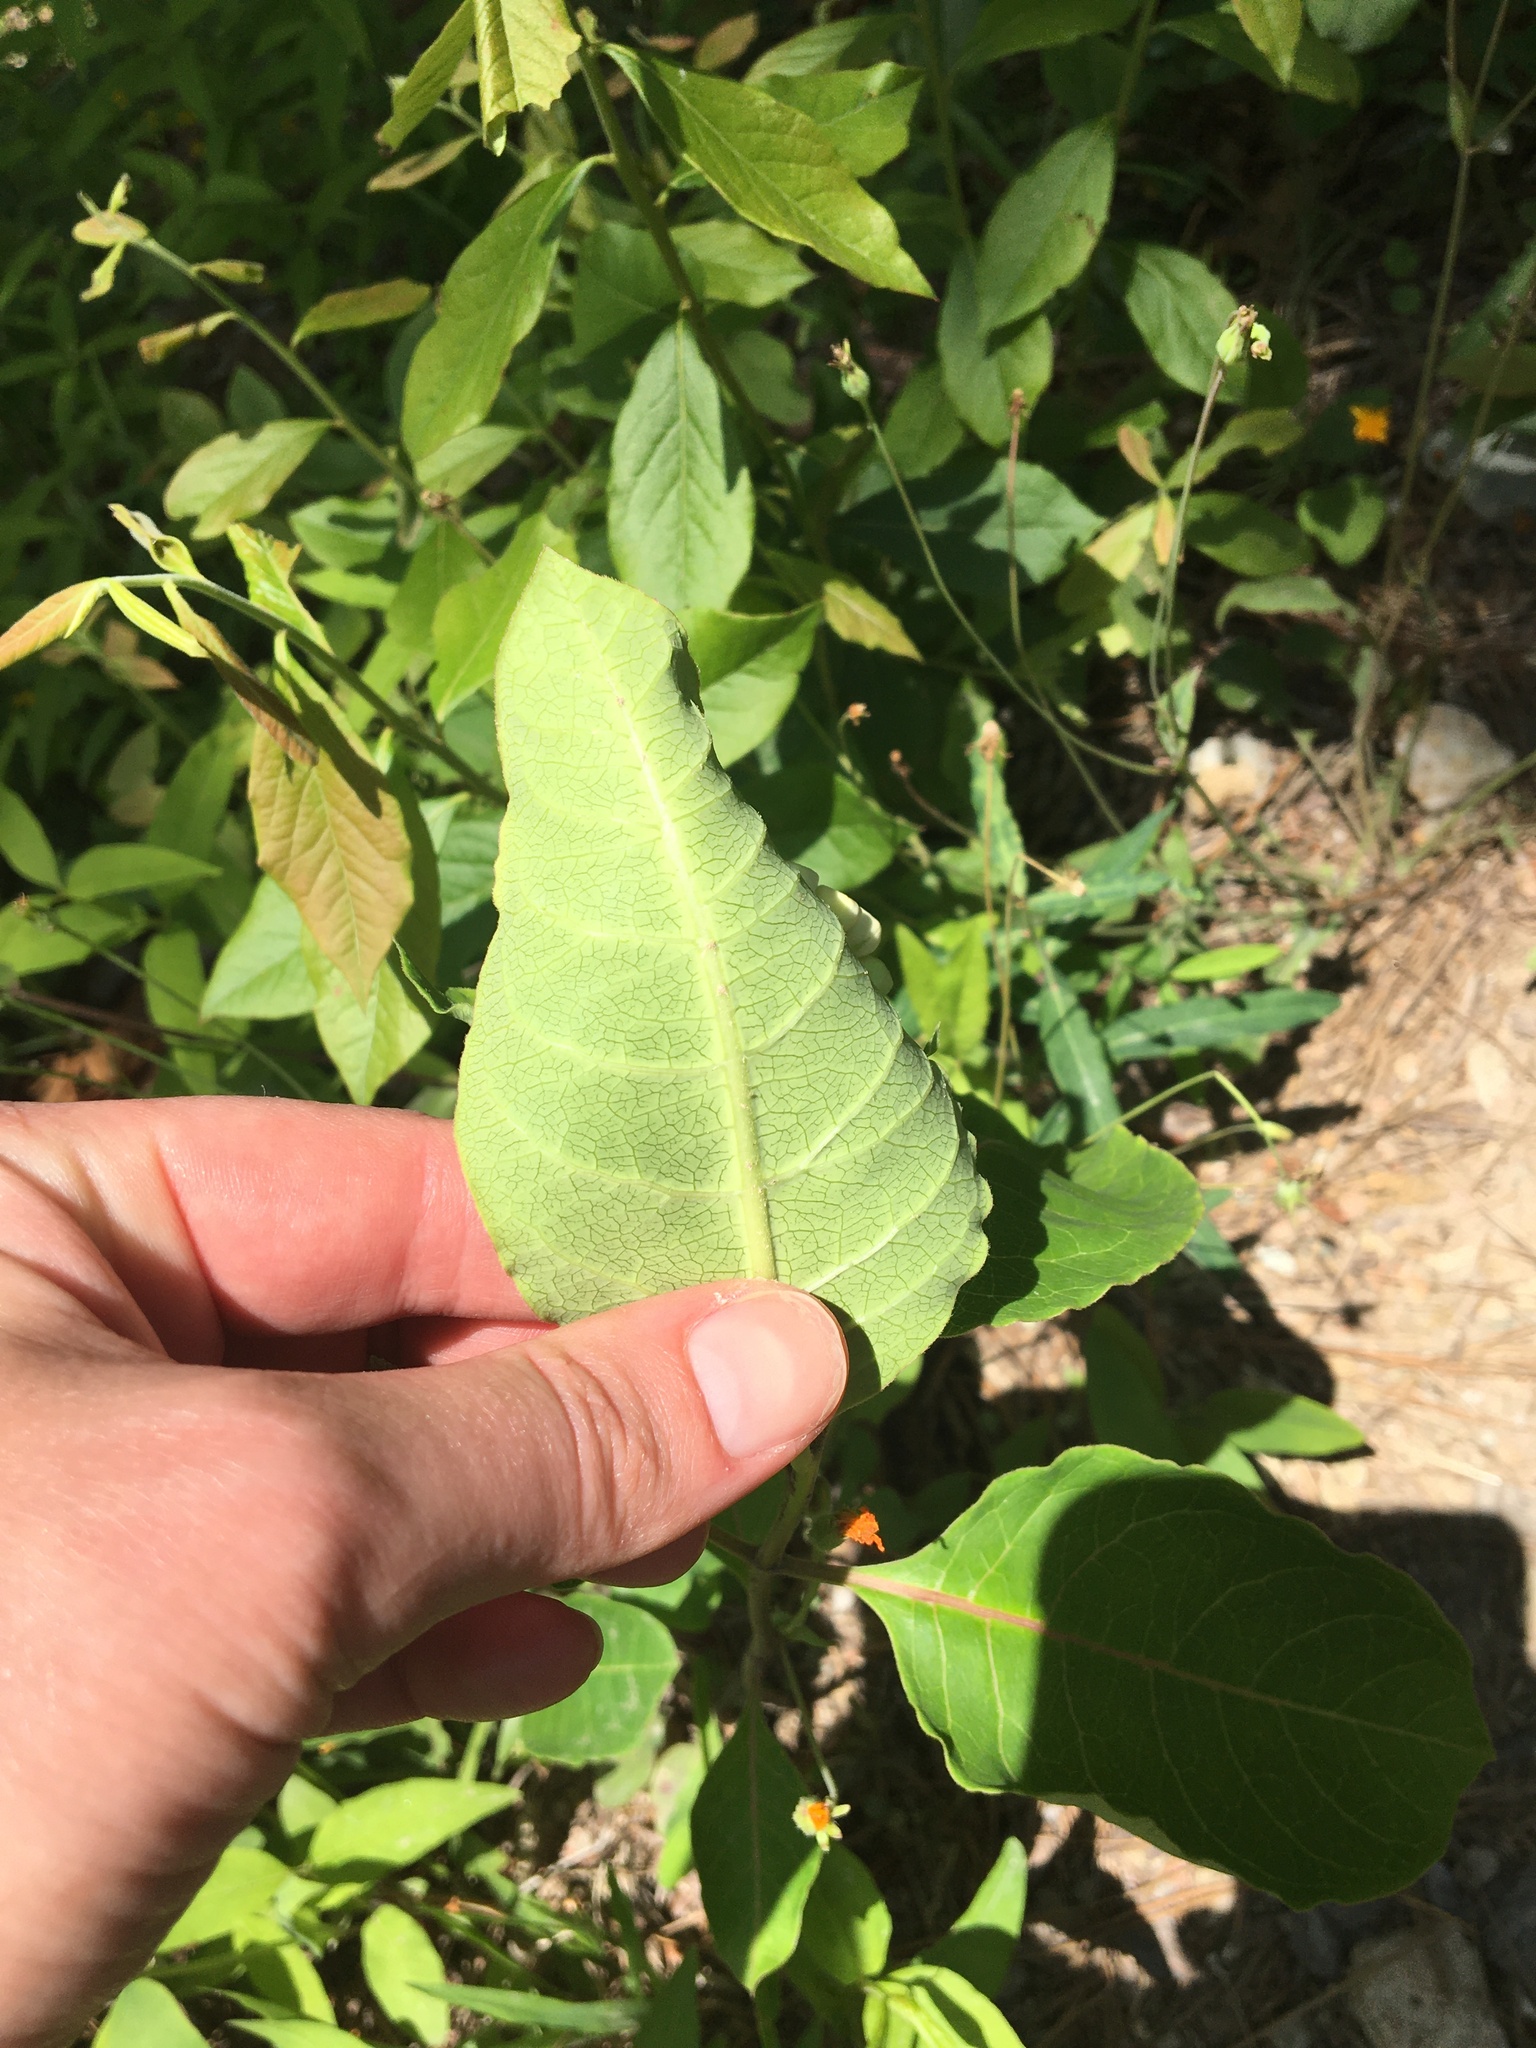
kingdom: Plantae
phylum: Tracheophyta
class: Magnoliopsida
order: Gentianales
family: Apocynaceae
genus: Asclepias
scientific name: Asclepias variegata
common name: Variegated milkweed
